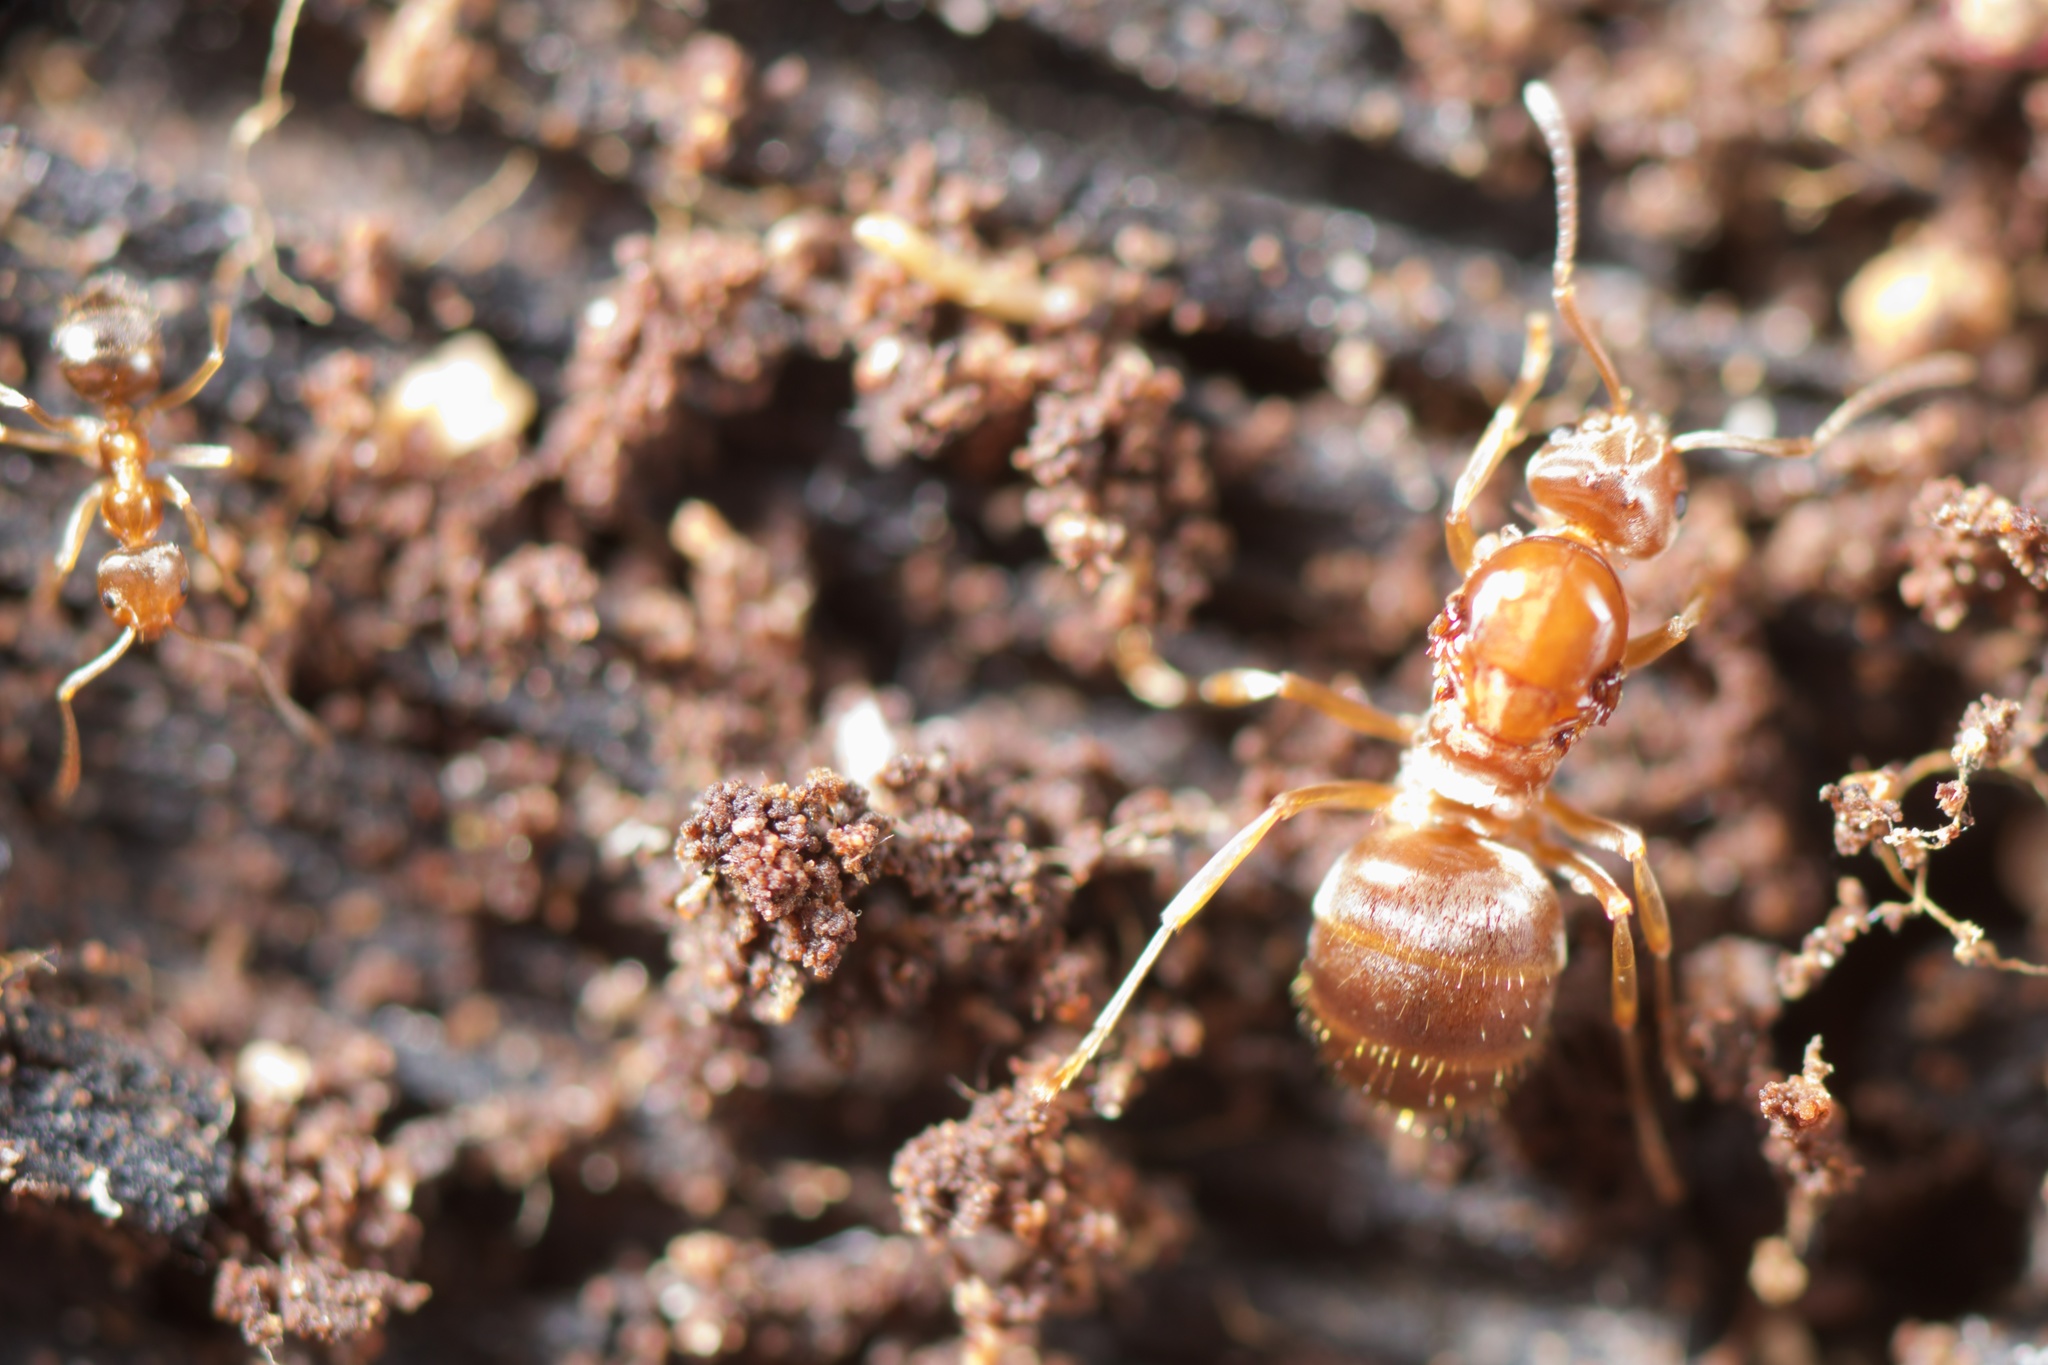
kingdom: Animalia
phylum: Arthropoda
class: Insecta
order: Hymenoptera
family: Formicidae
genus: Prolasius
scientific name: Prolasius advenus
